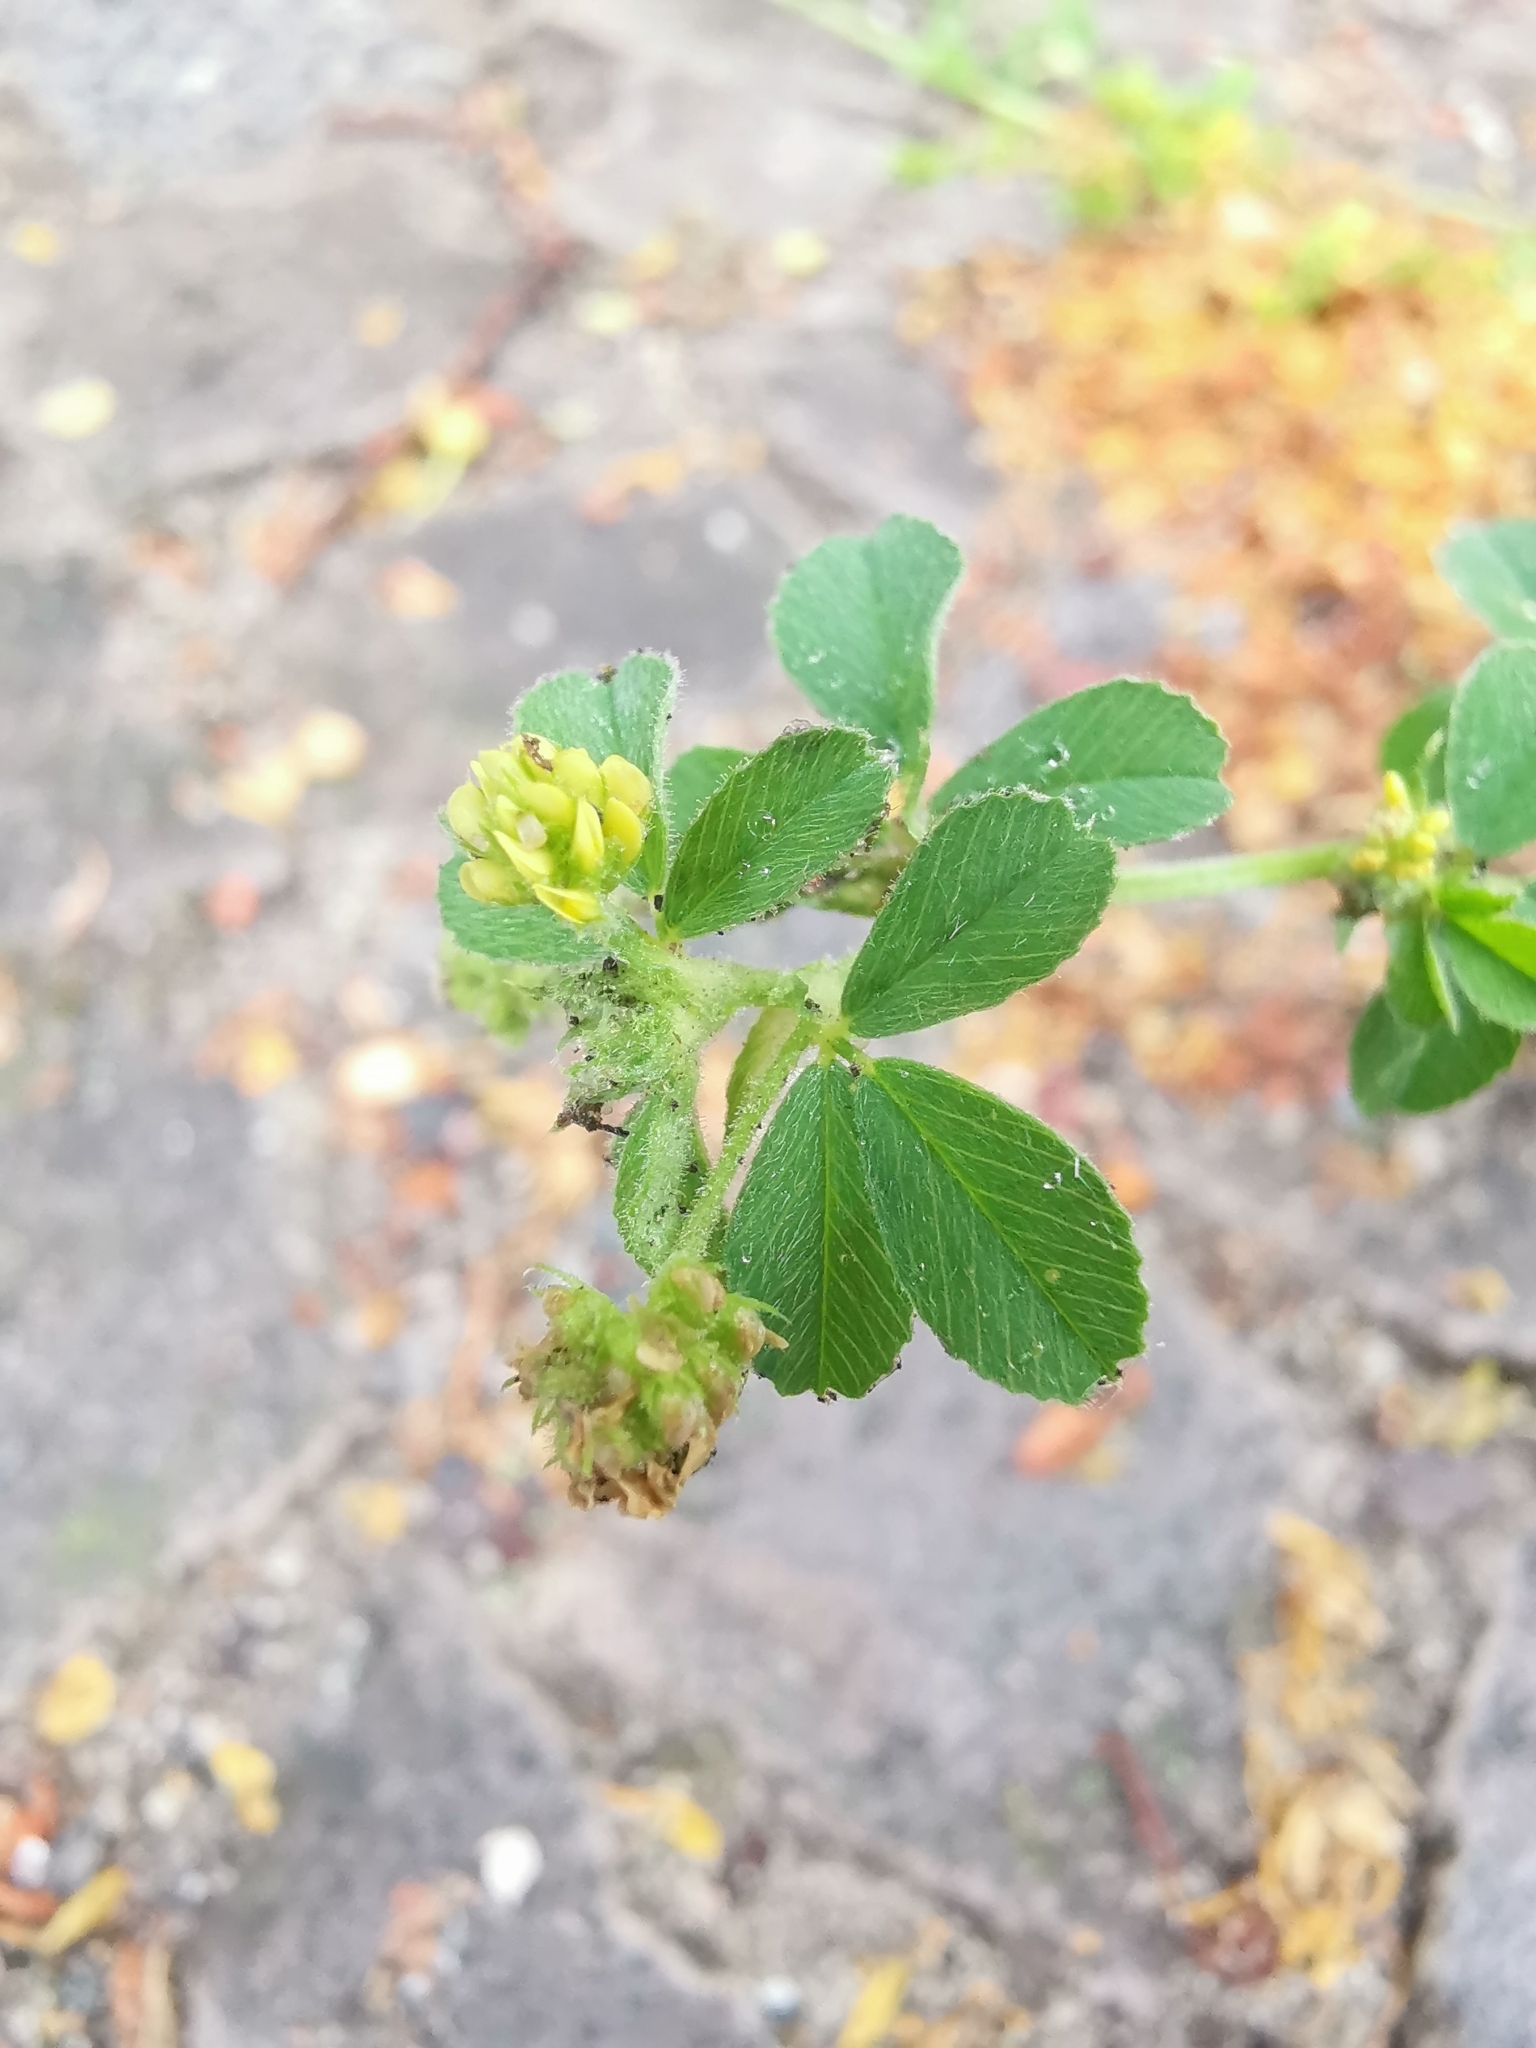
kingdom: Plantae
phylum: Tracheophyta
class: Magnoliopsida
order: Fabales
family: Fabaceae
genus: Medicago
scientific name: Medicago lupulina
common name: Black medick
